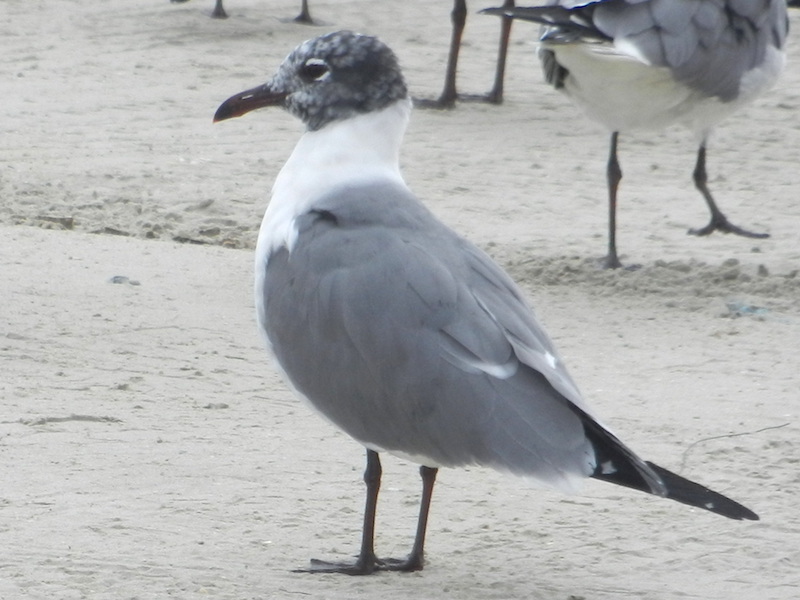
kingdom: Animalia
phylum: Chordata
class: Aves
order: Charadriiformes
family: Laridae
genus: Leucophaeus
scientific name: Leucophaeus atricilla
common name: Laughing gull
